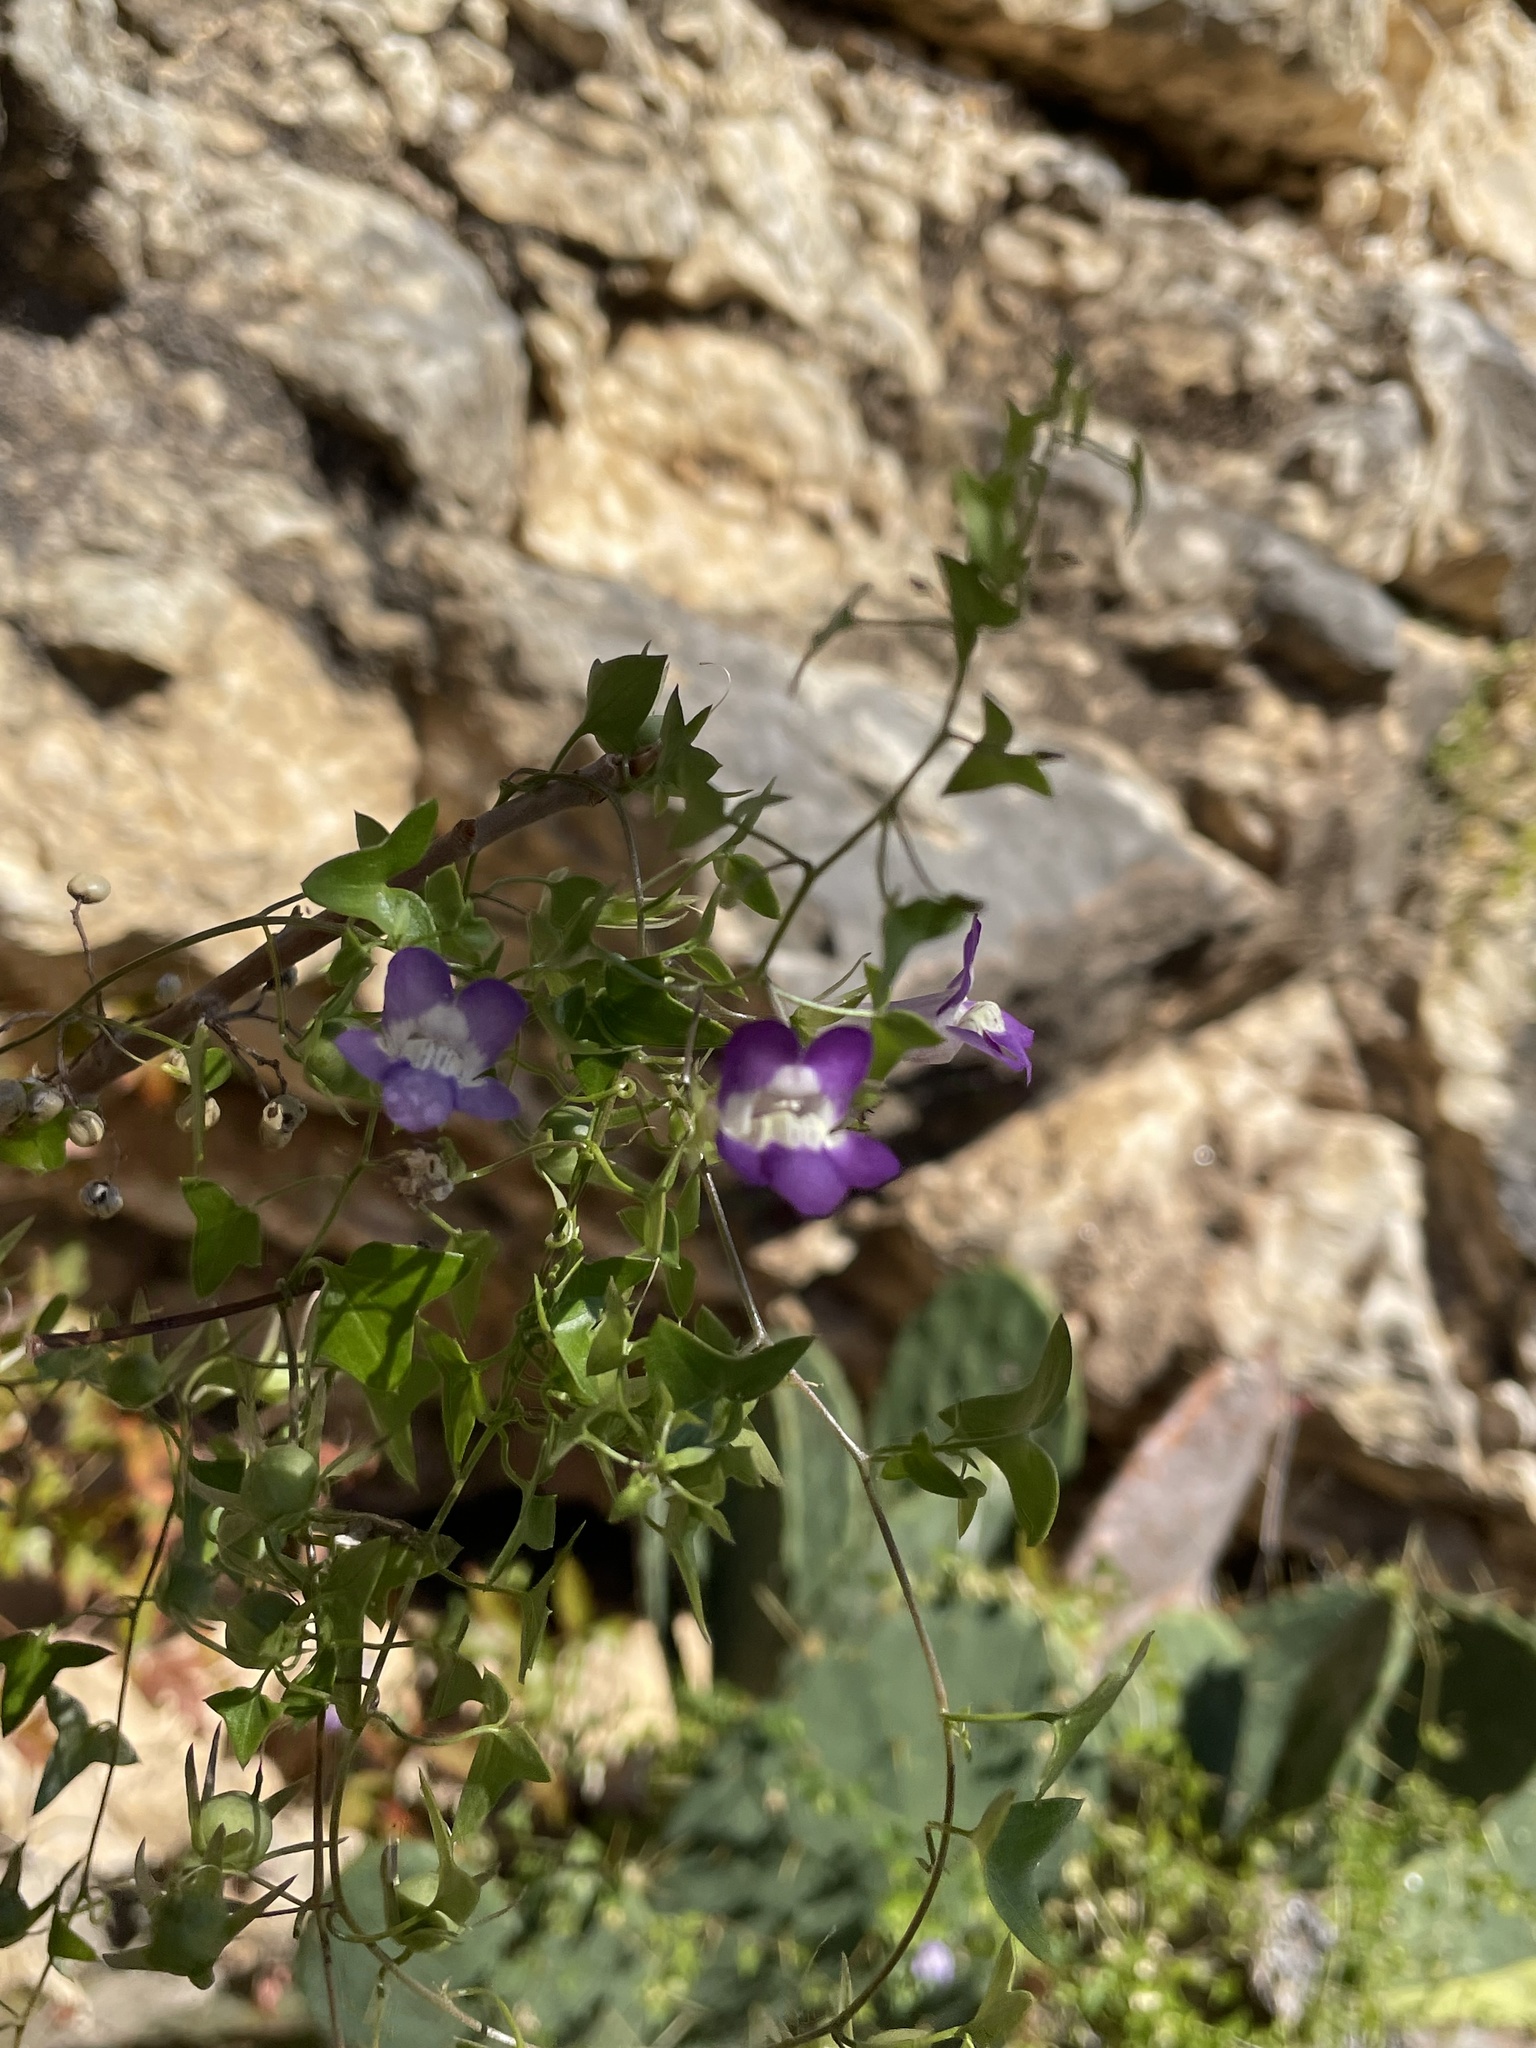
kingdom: Plantae
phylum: Tracheophyta
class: Magnoliopsida
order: Lamiales
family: Plantaginaceae
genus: Maurandella
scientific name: Maurandella antirrhiniflora
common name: Violet twining-snapdragon
